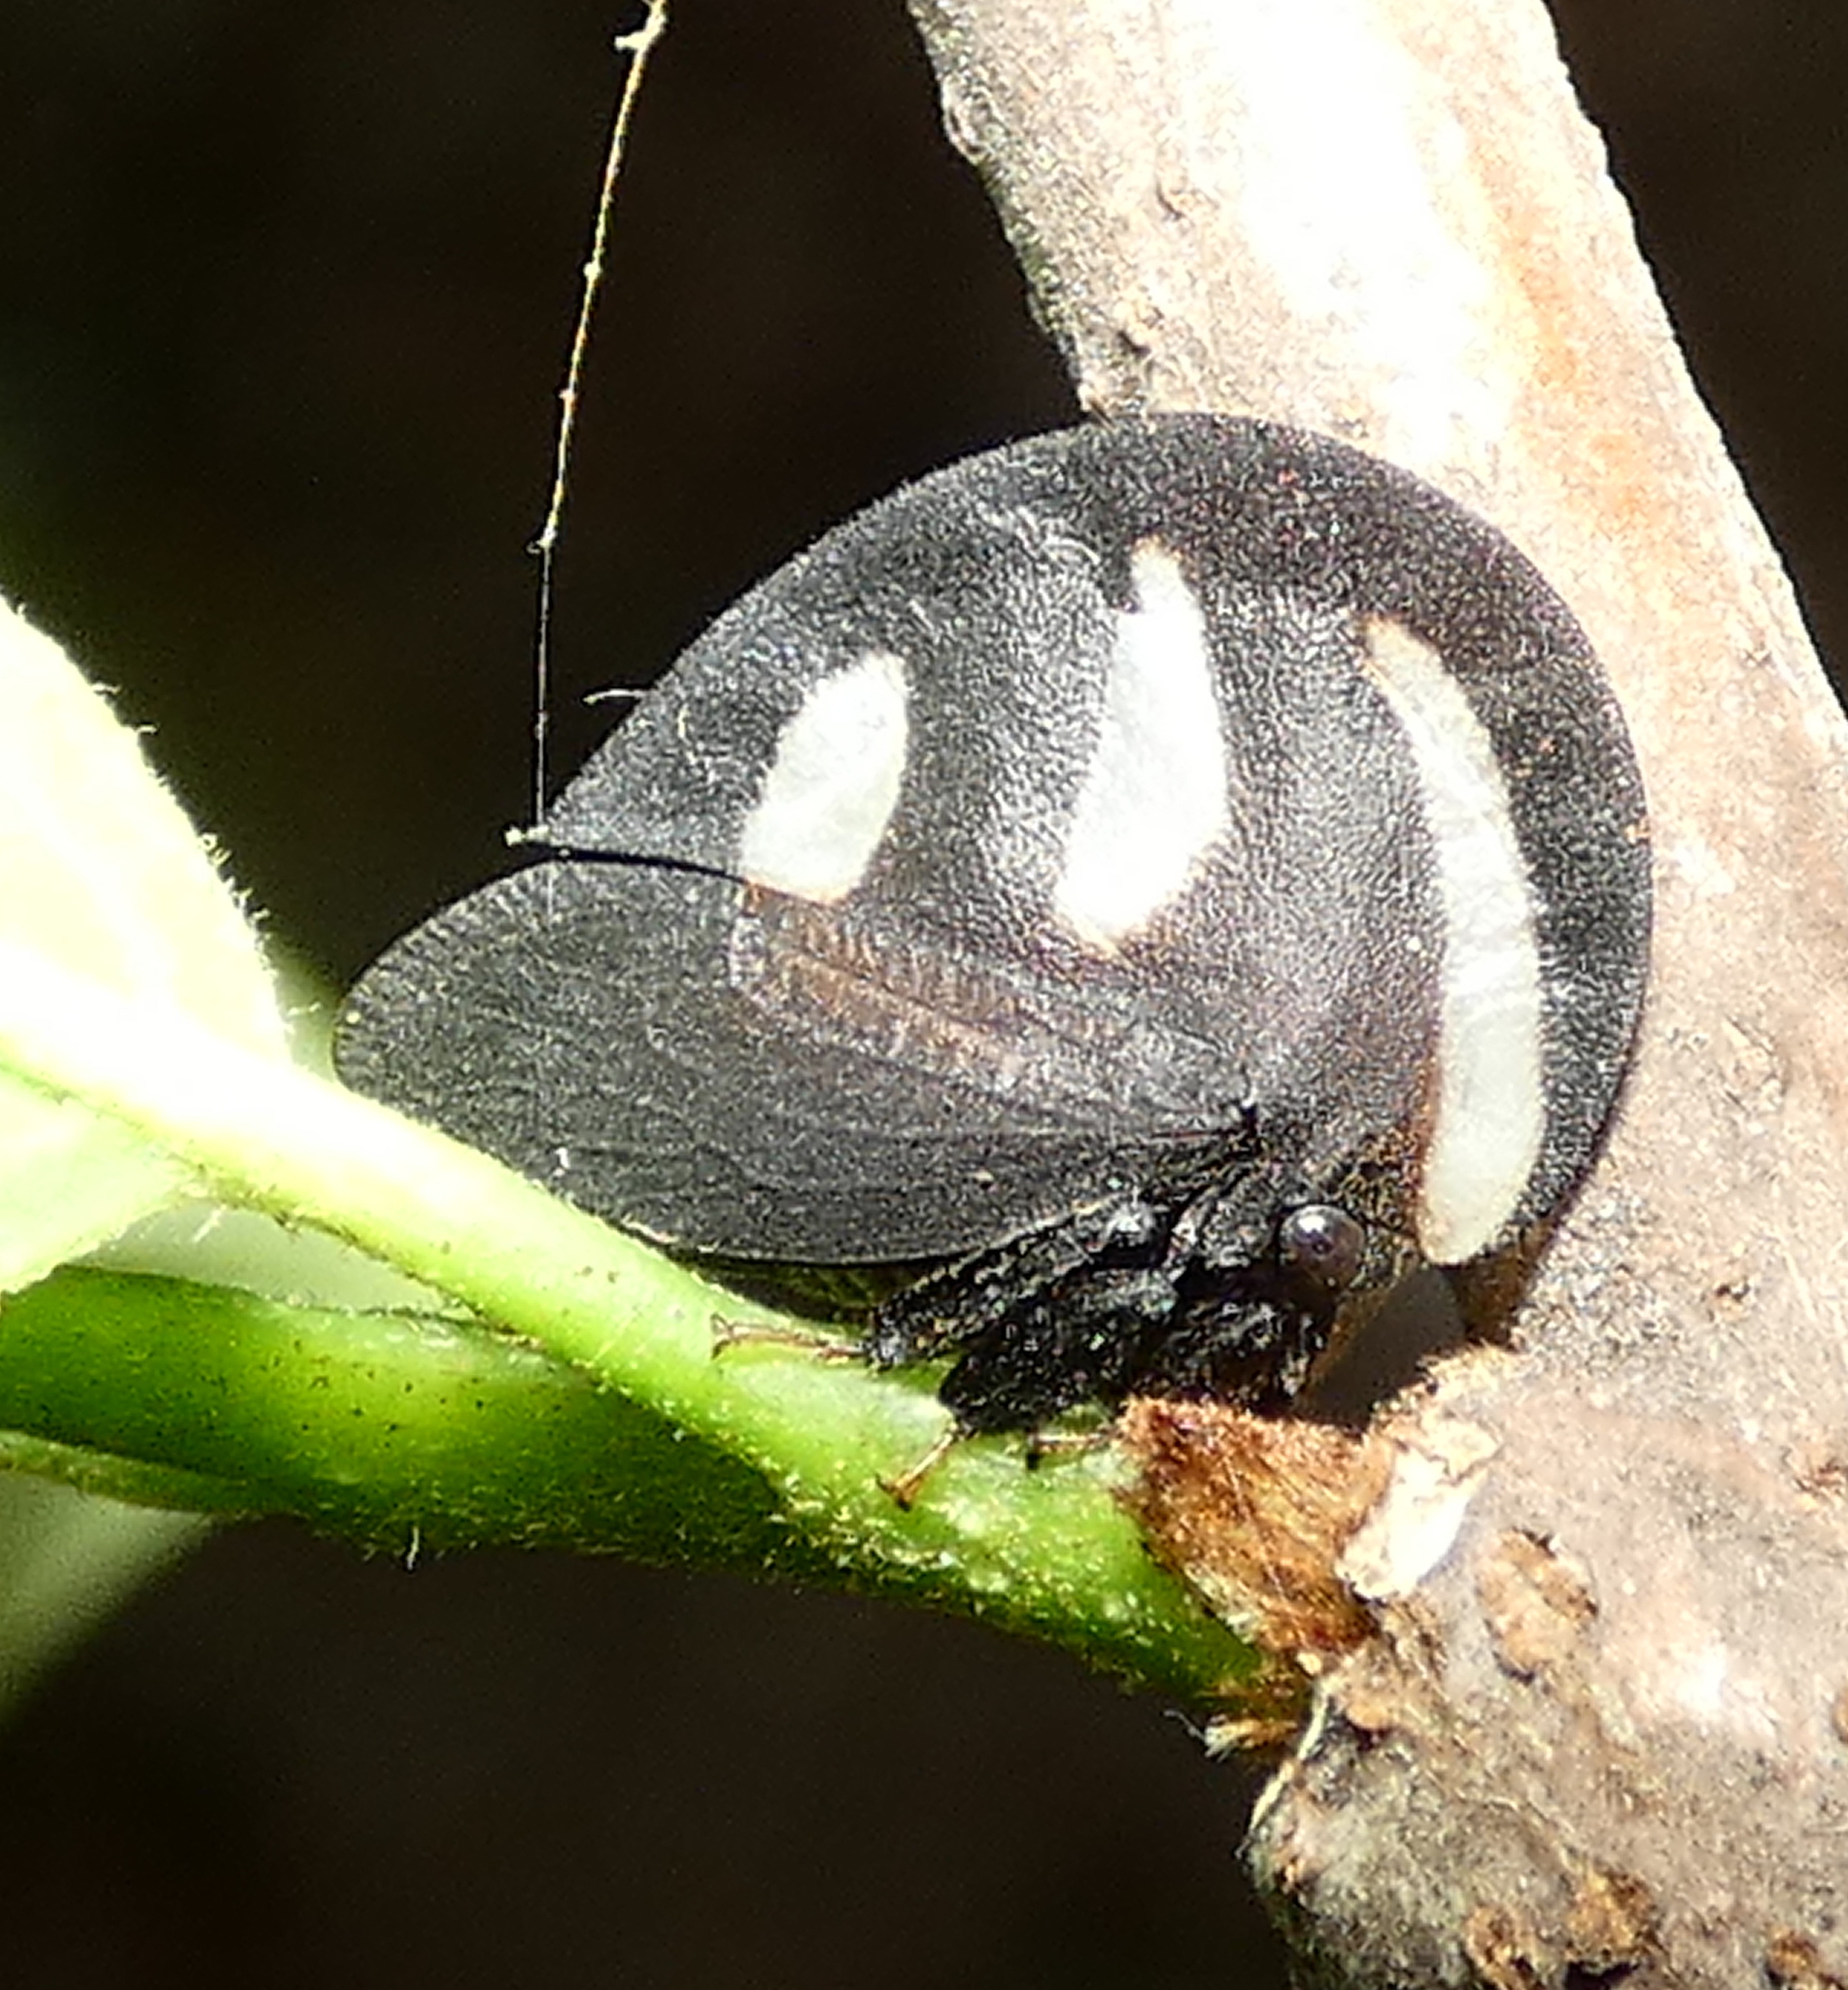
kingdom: Animalia
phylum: Arthropoda
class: Insecta
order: Hemiptera
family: Membracidae
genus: Membracis
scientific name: Membracis
